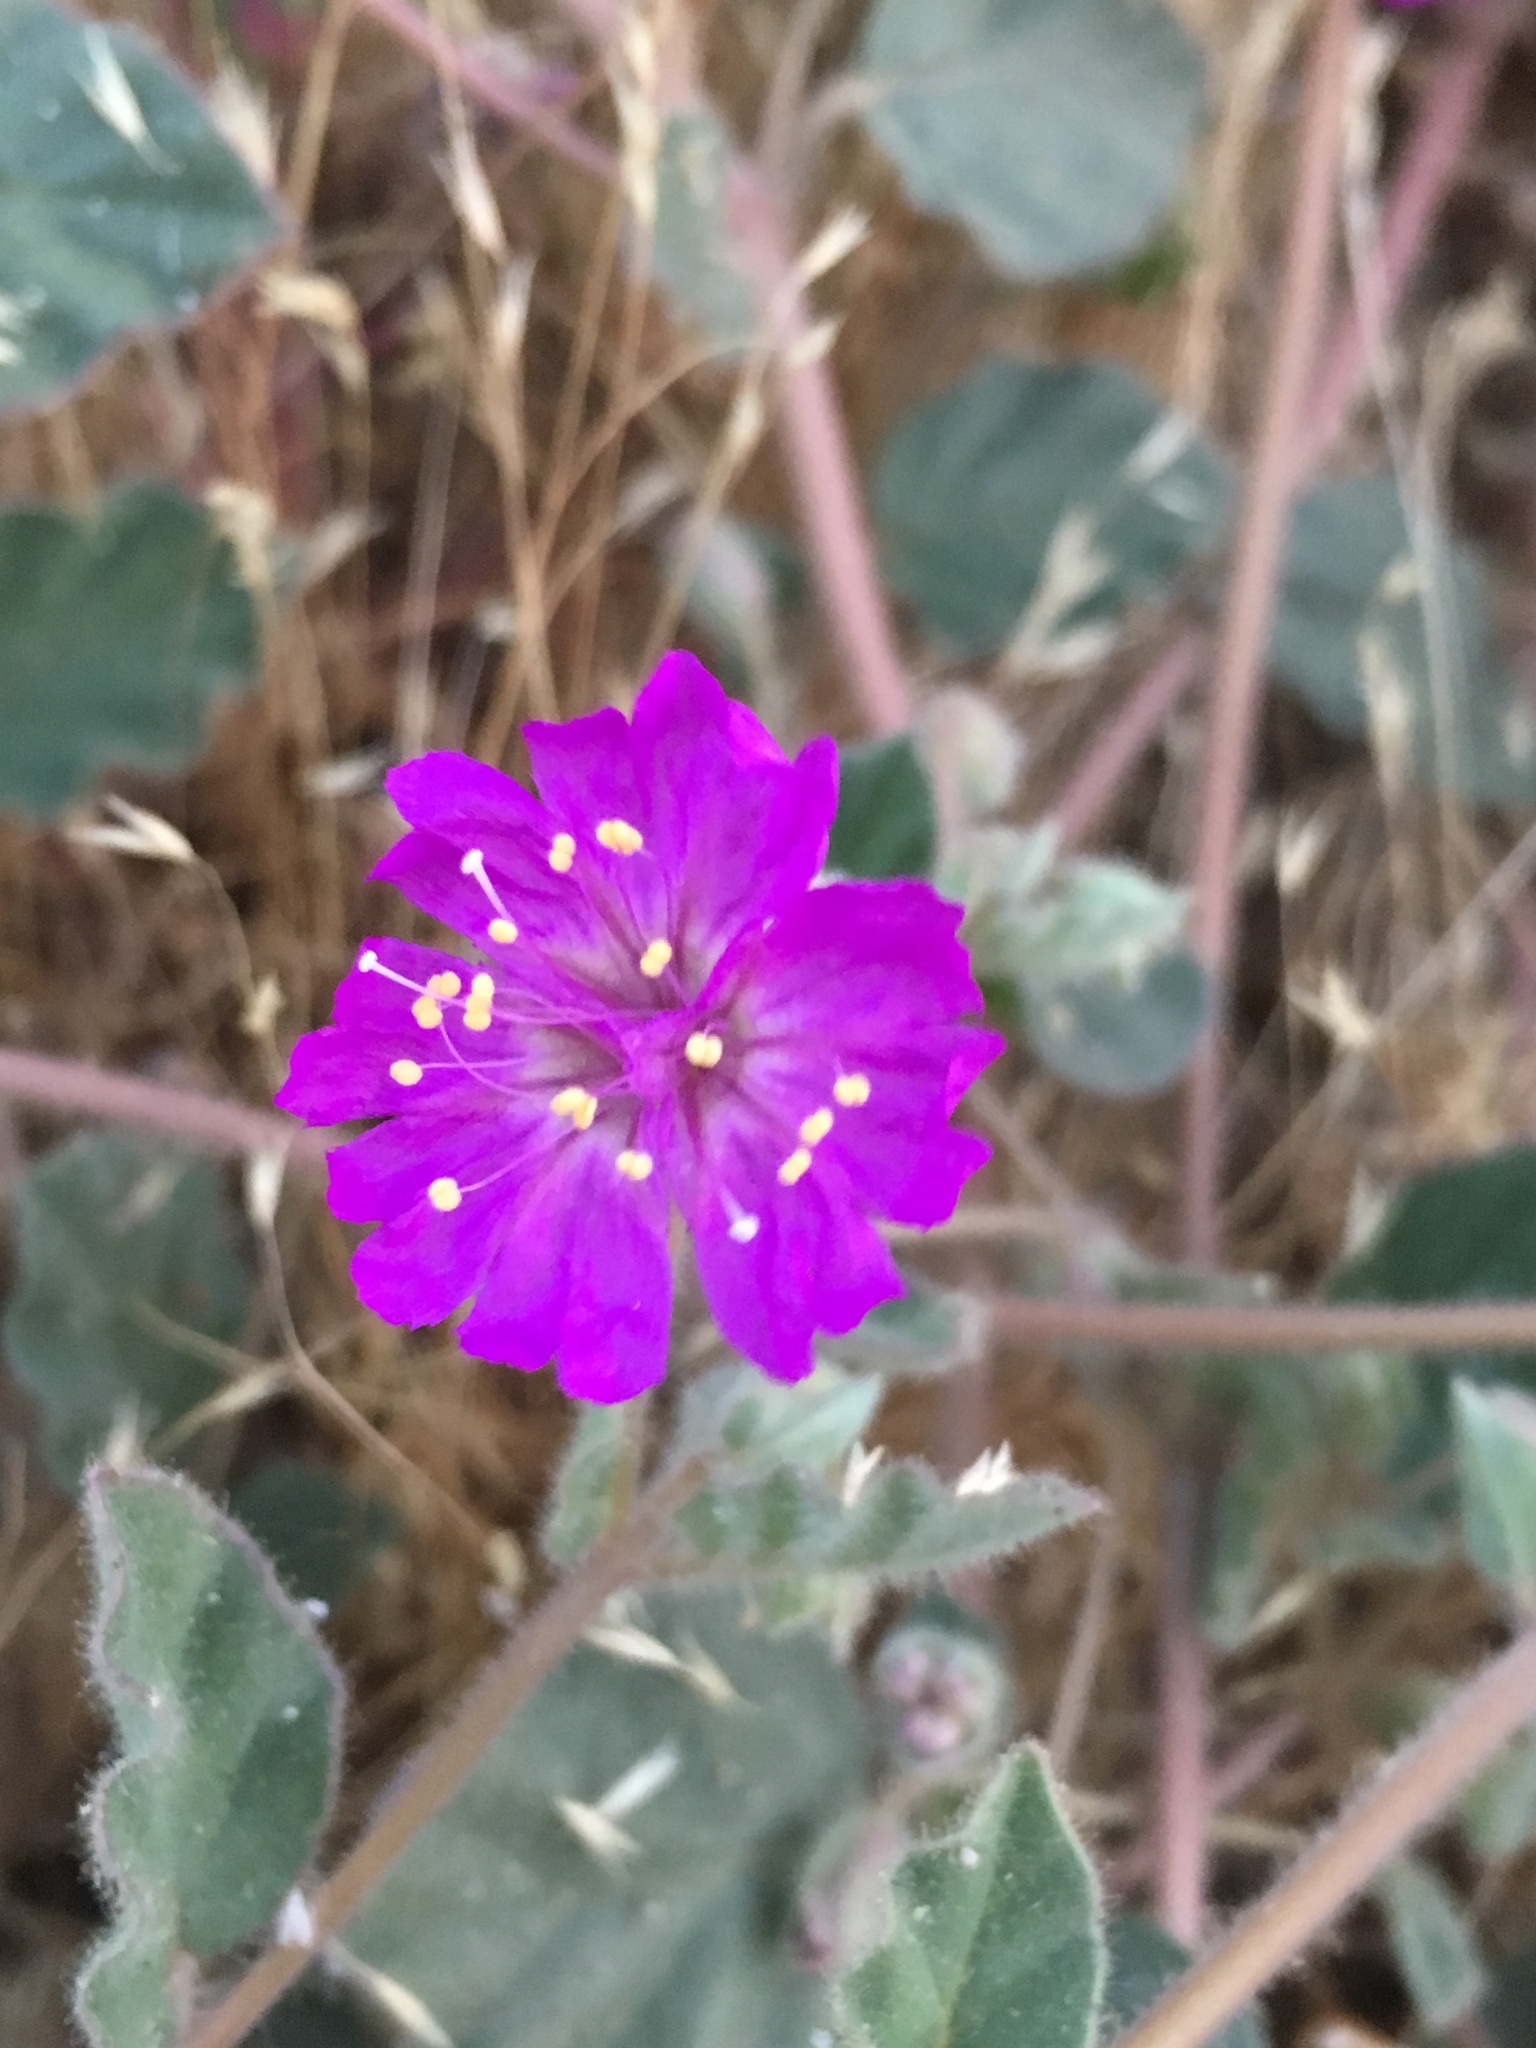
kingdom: Plantae
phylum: Tracheophyta
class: Magnoliopsida
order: Caryophyllales
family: Nyctaginaceae
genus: Allionia
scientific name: Allionia incarnata
